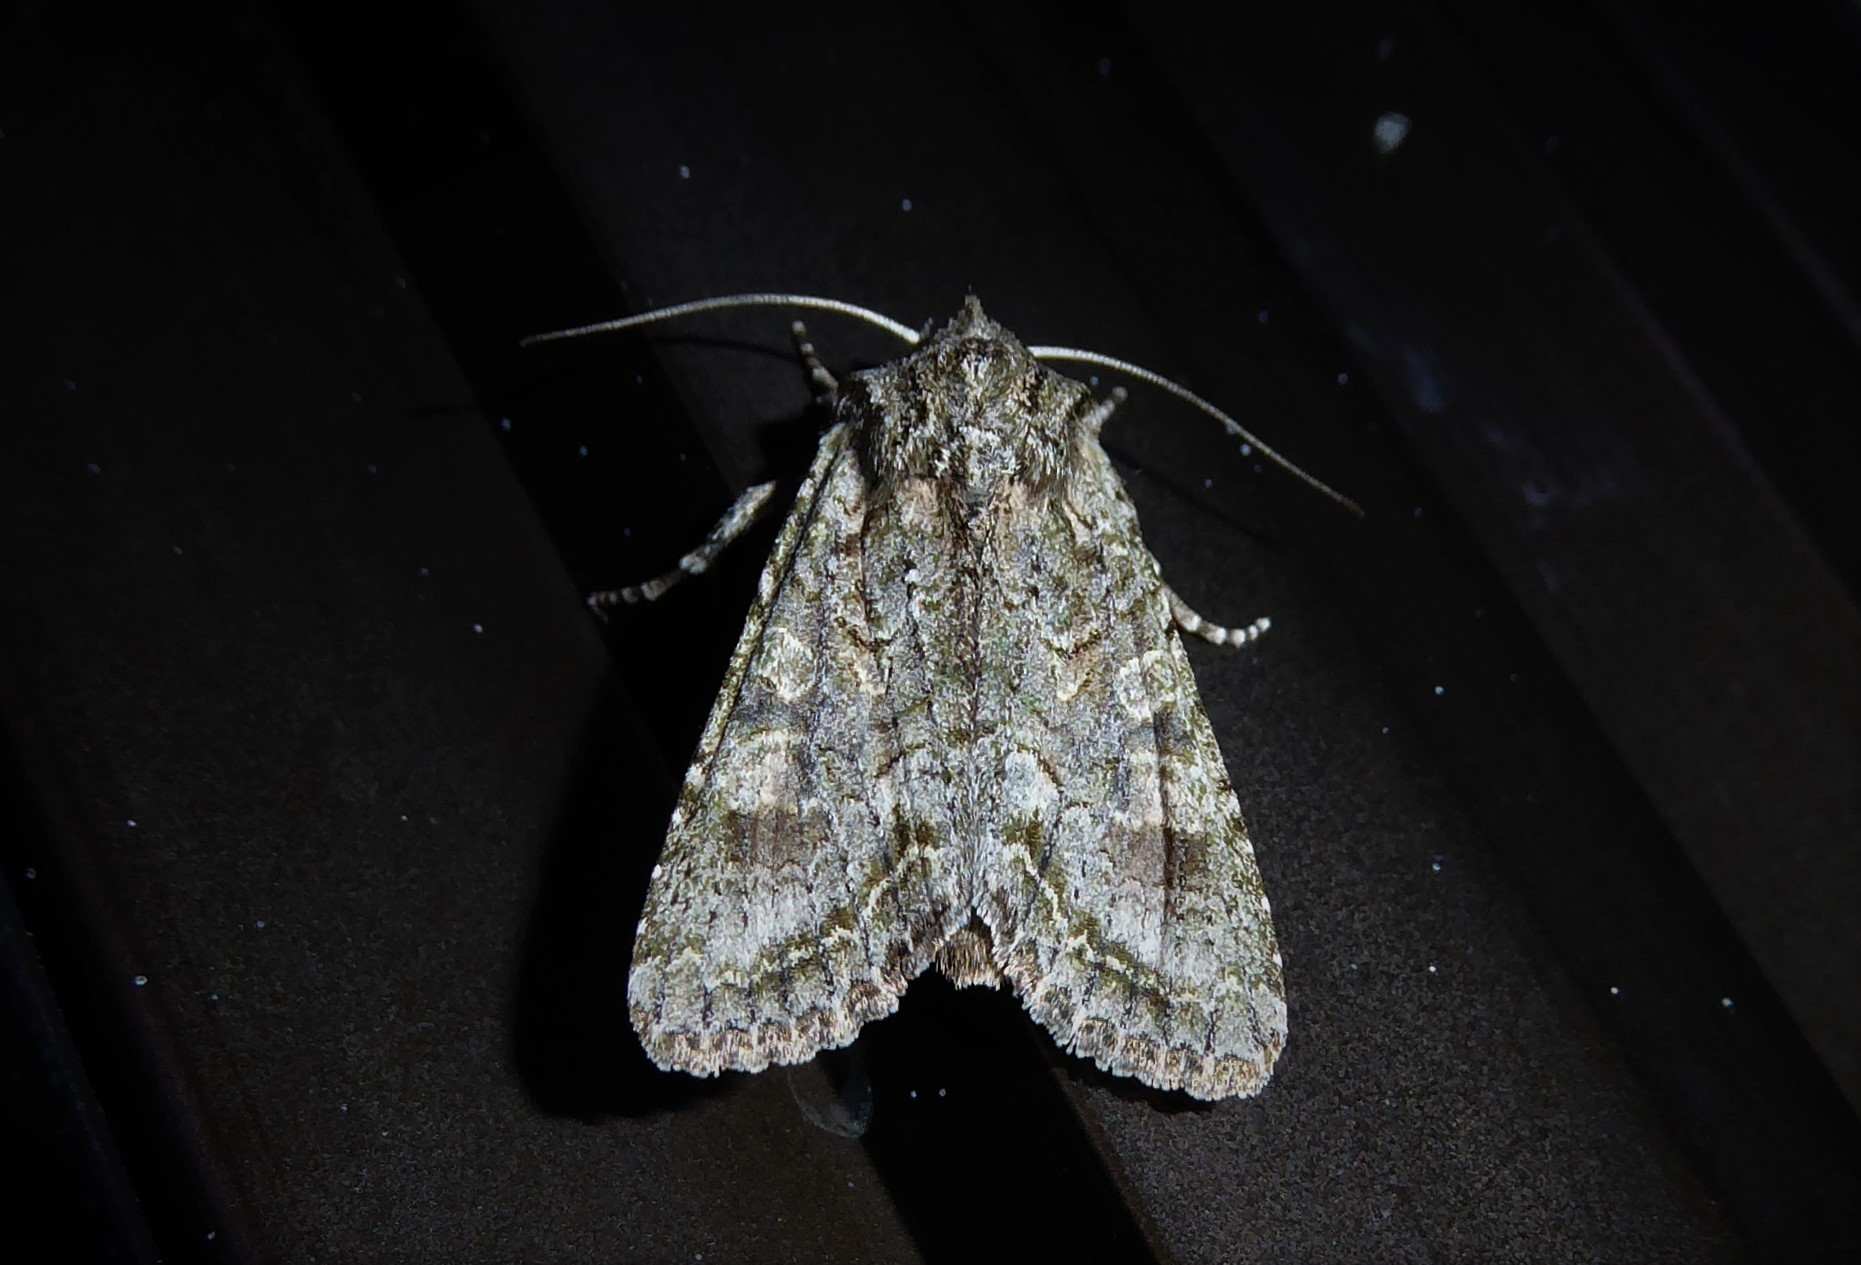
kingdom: Animalia
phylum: Arthropoda
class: Insecta
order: Lepidoptera
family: Noctuidae
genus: Ichneutica
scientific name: Ichneutica mutans
